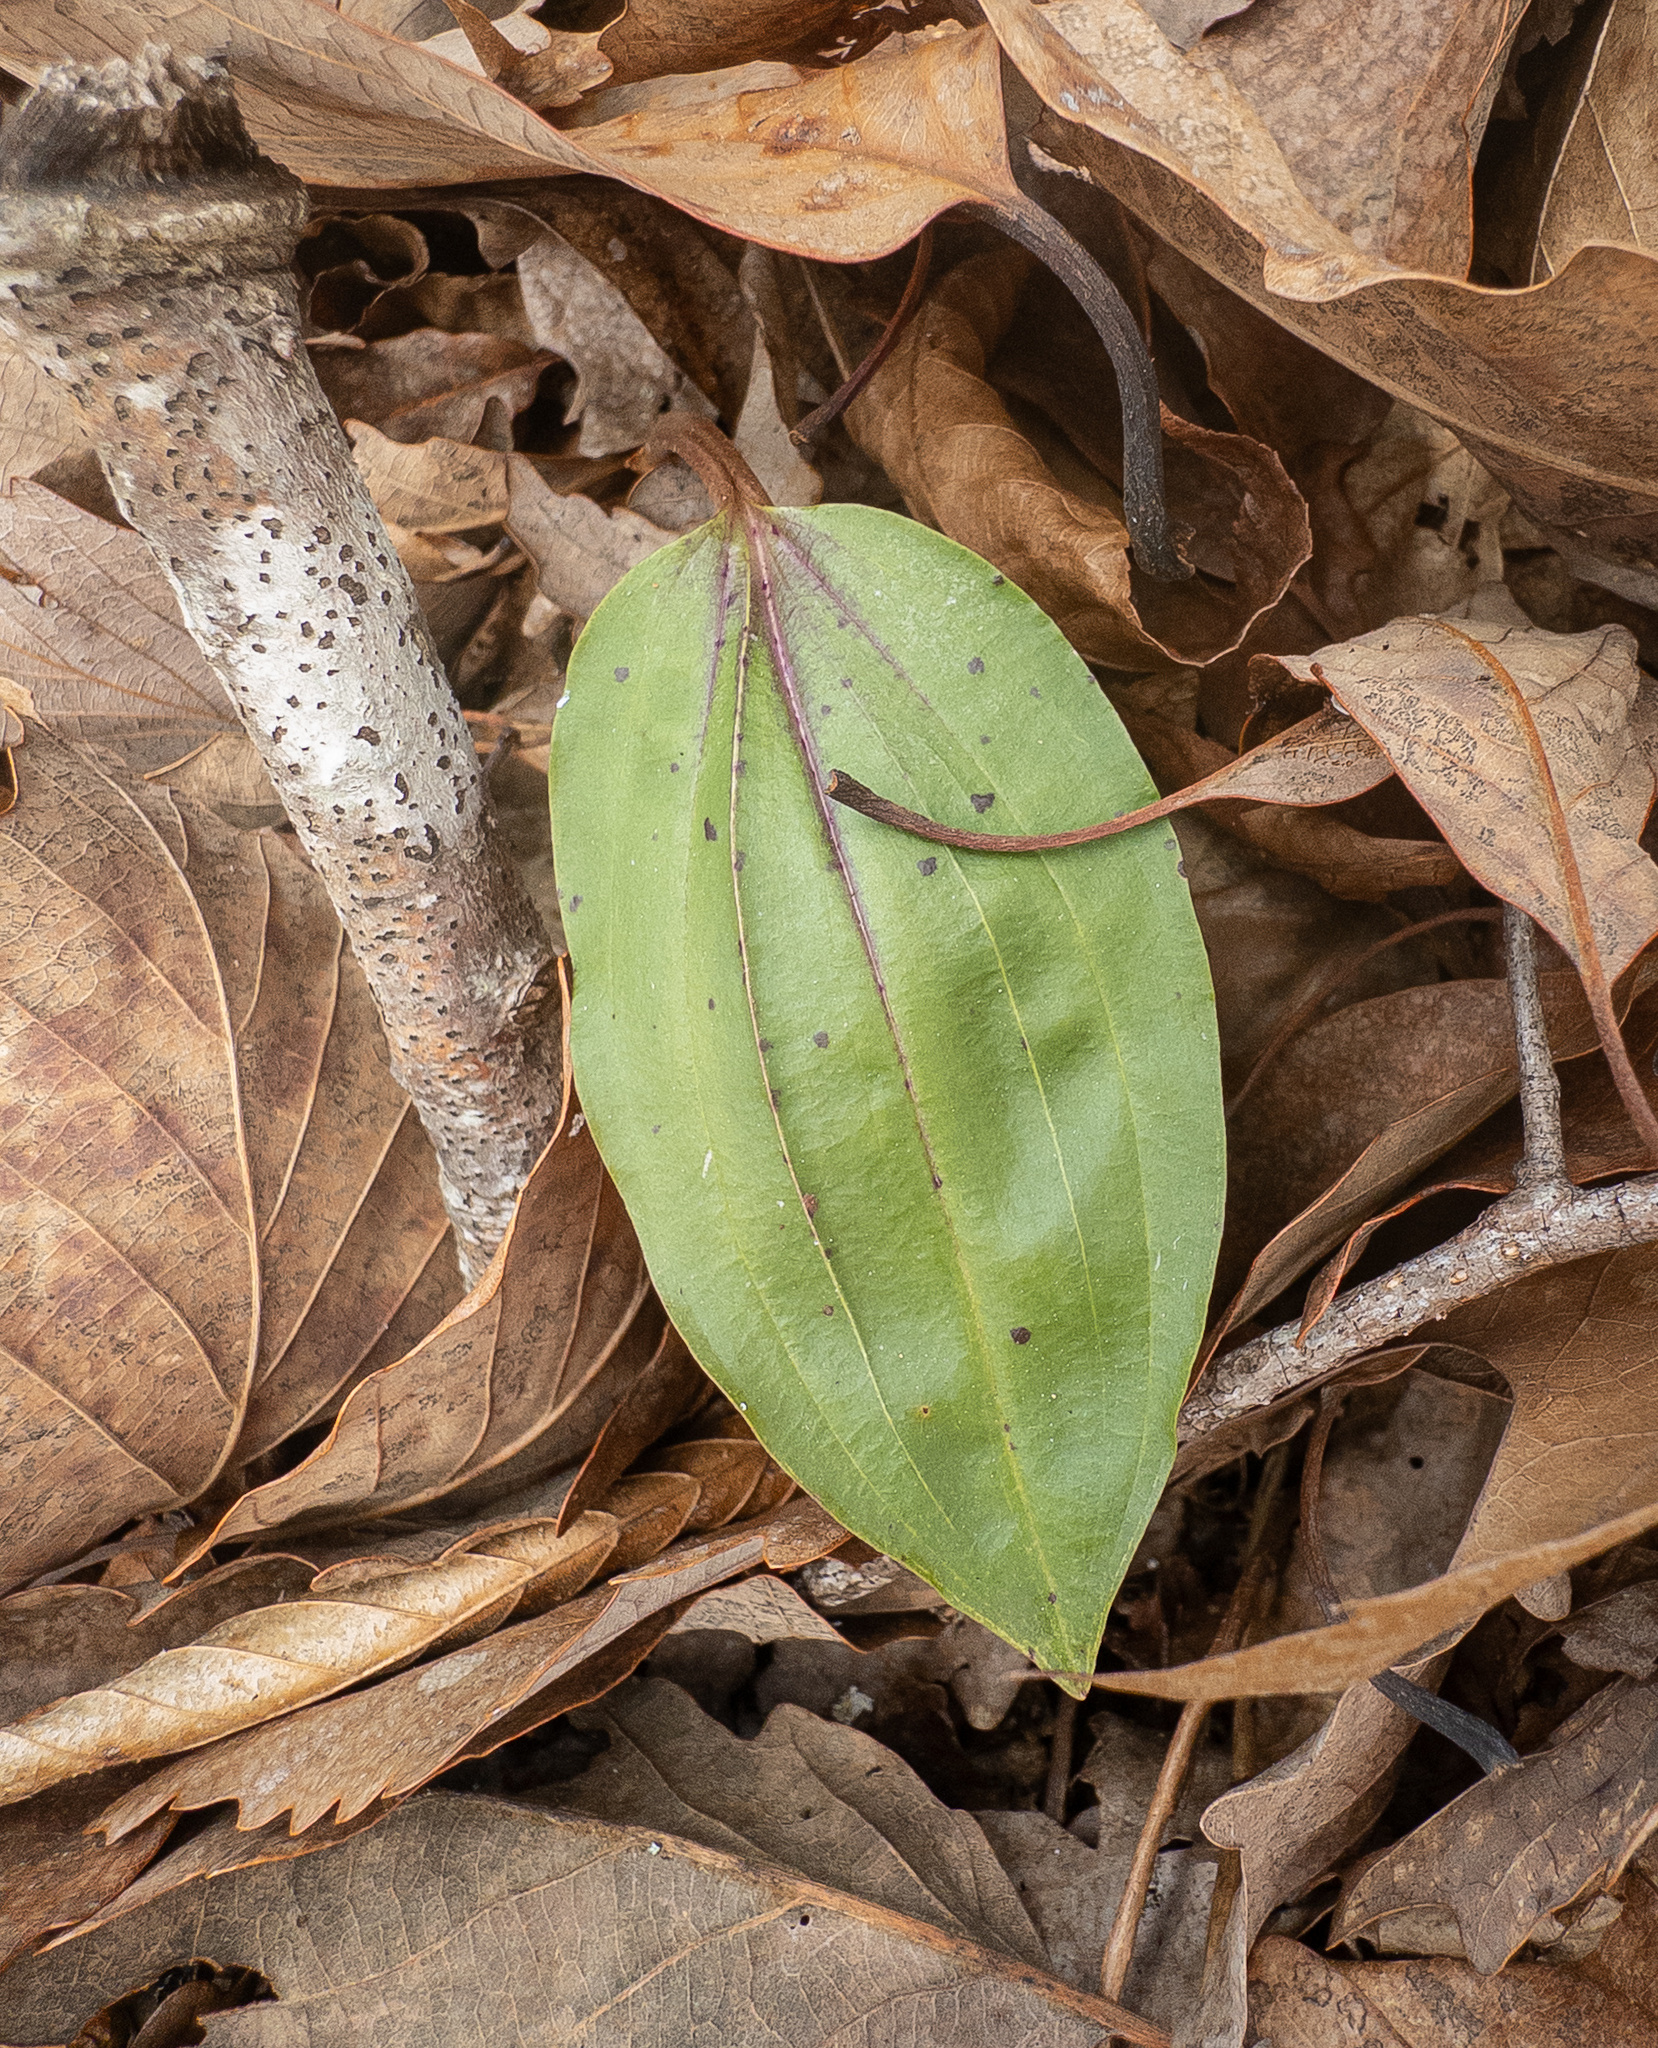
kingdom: Plantae
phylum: Tracheophyta
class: Liliopsida
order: Asparagales
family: Orchidaceae
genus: Tipularia
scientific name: Tipularia discolor
